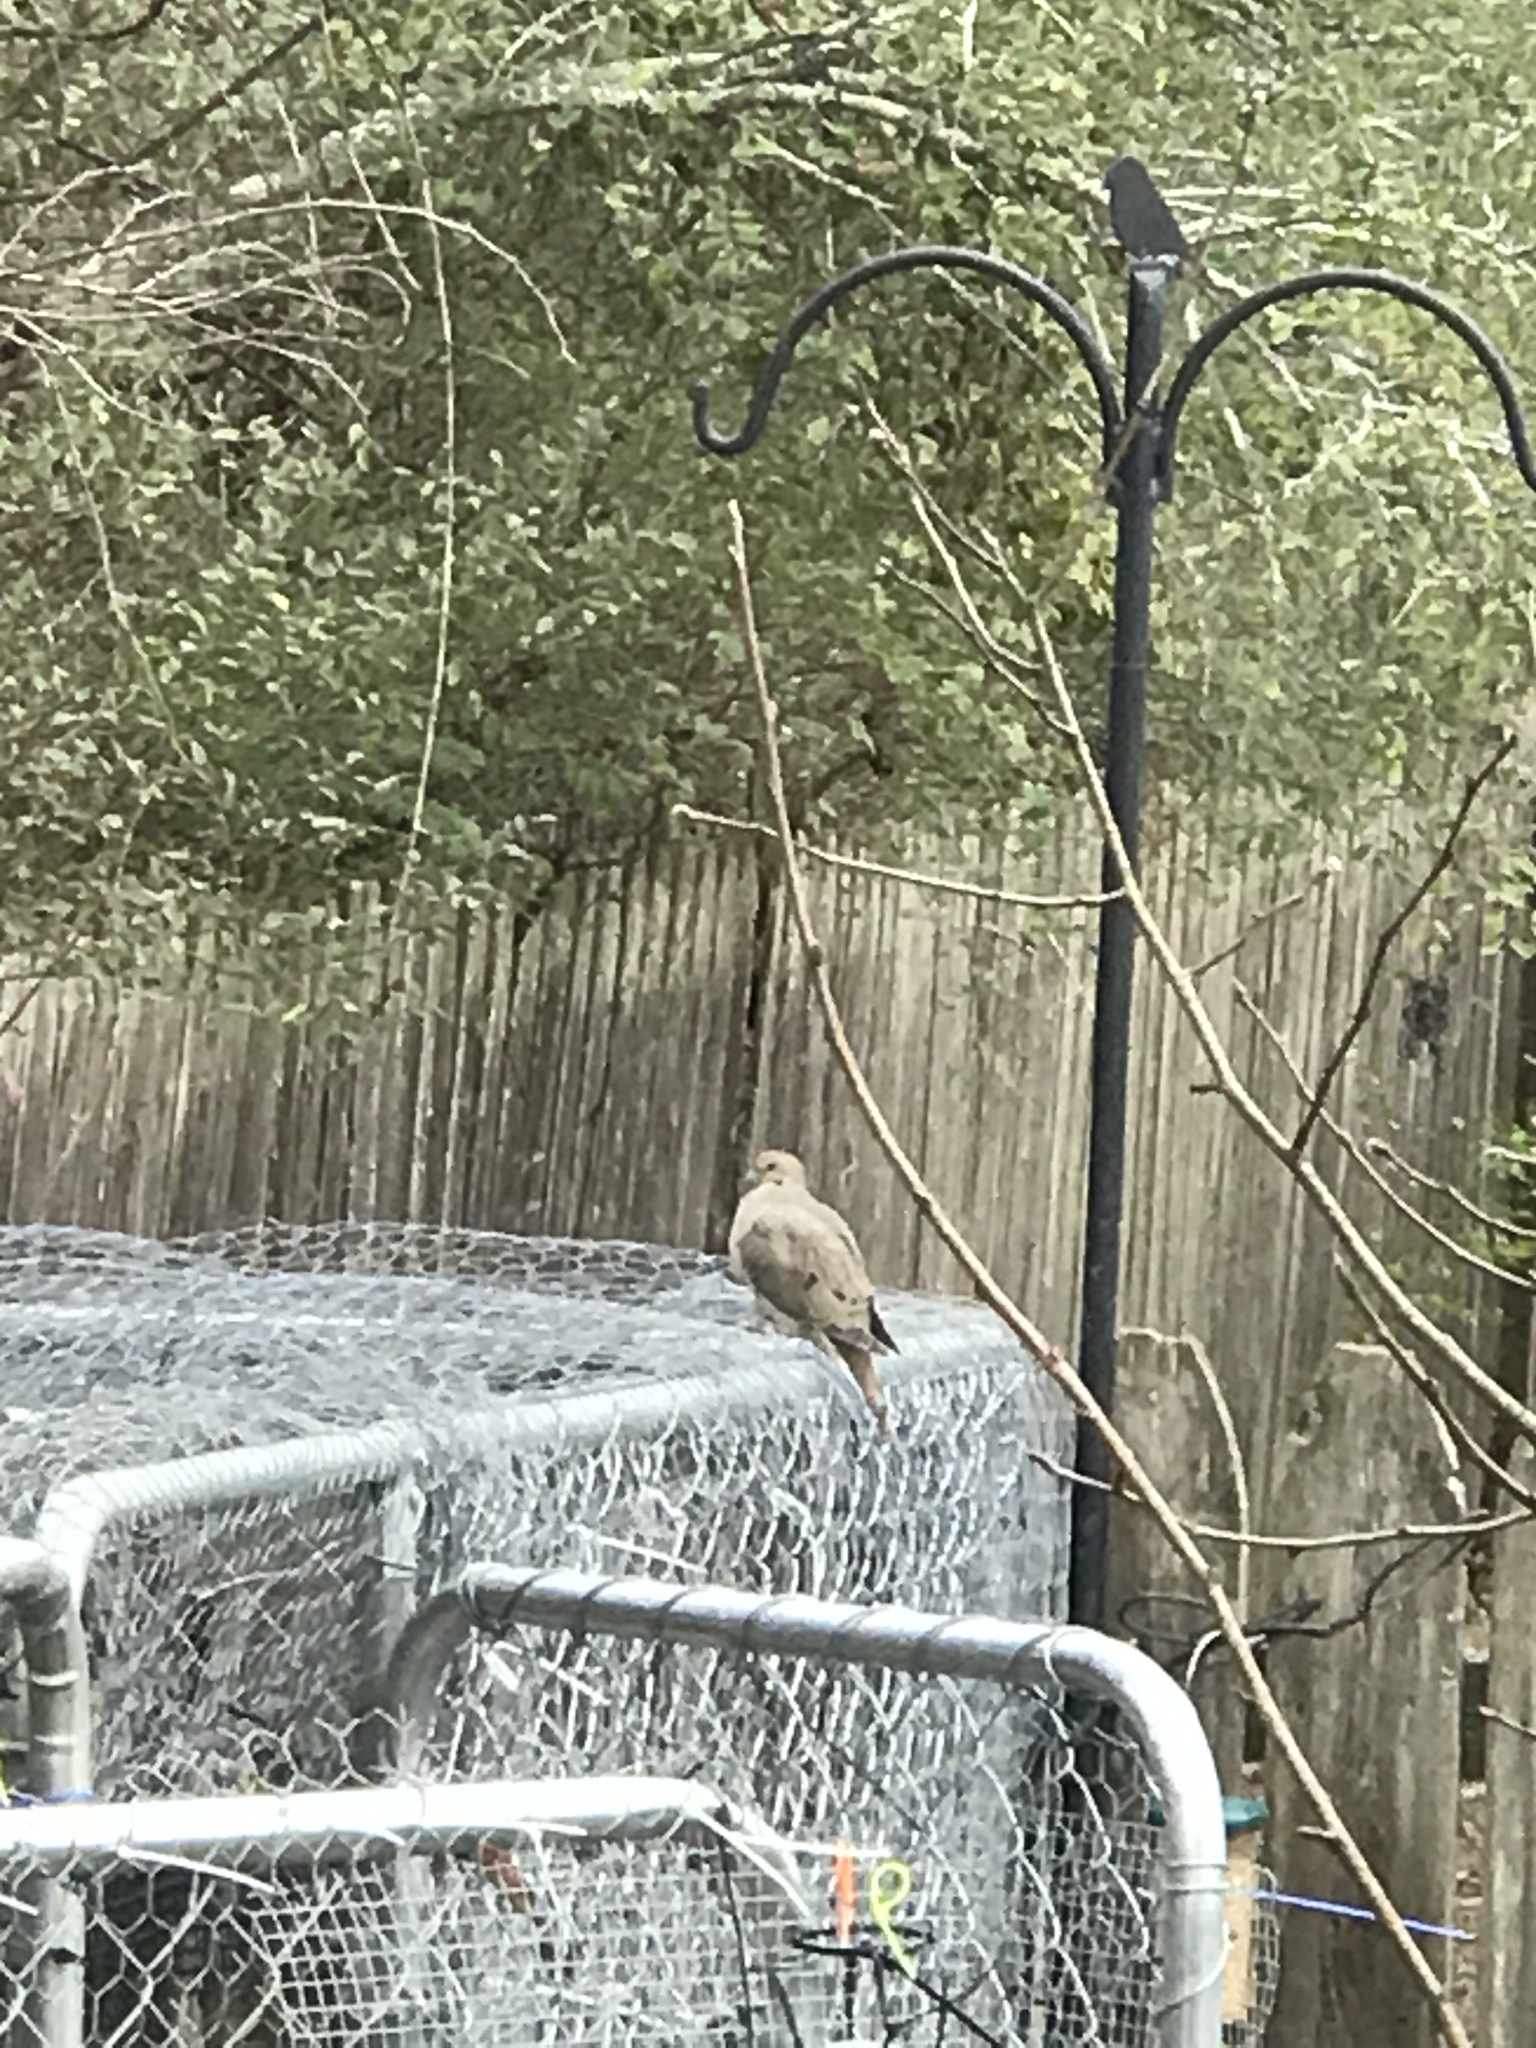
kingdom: Animalia
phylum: Chordata
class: Aves
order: Columbiformes
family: Columbidae
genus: Zenaida
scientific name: Zenaida macroura
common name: Mourning dove
